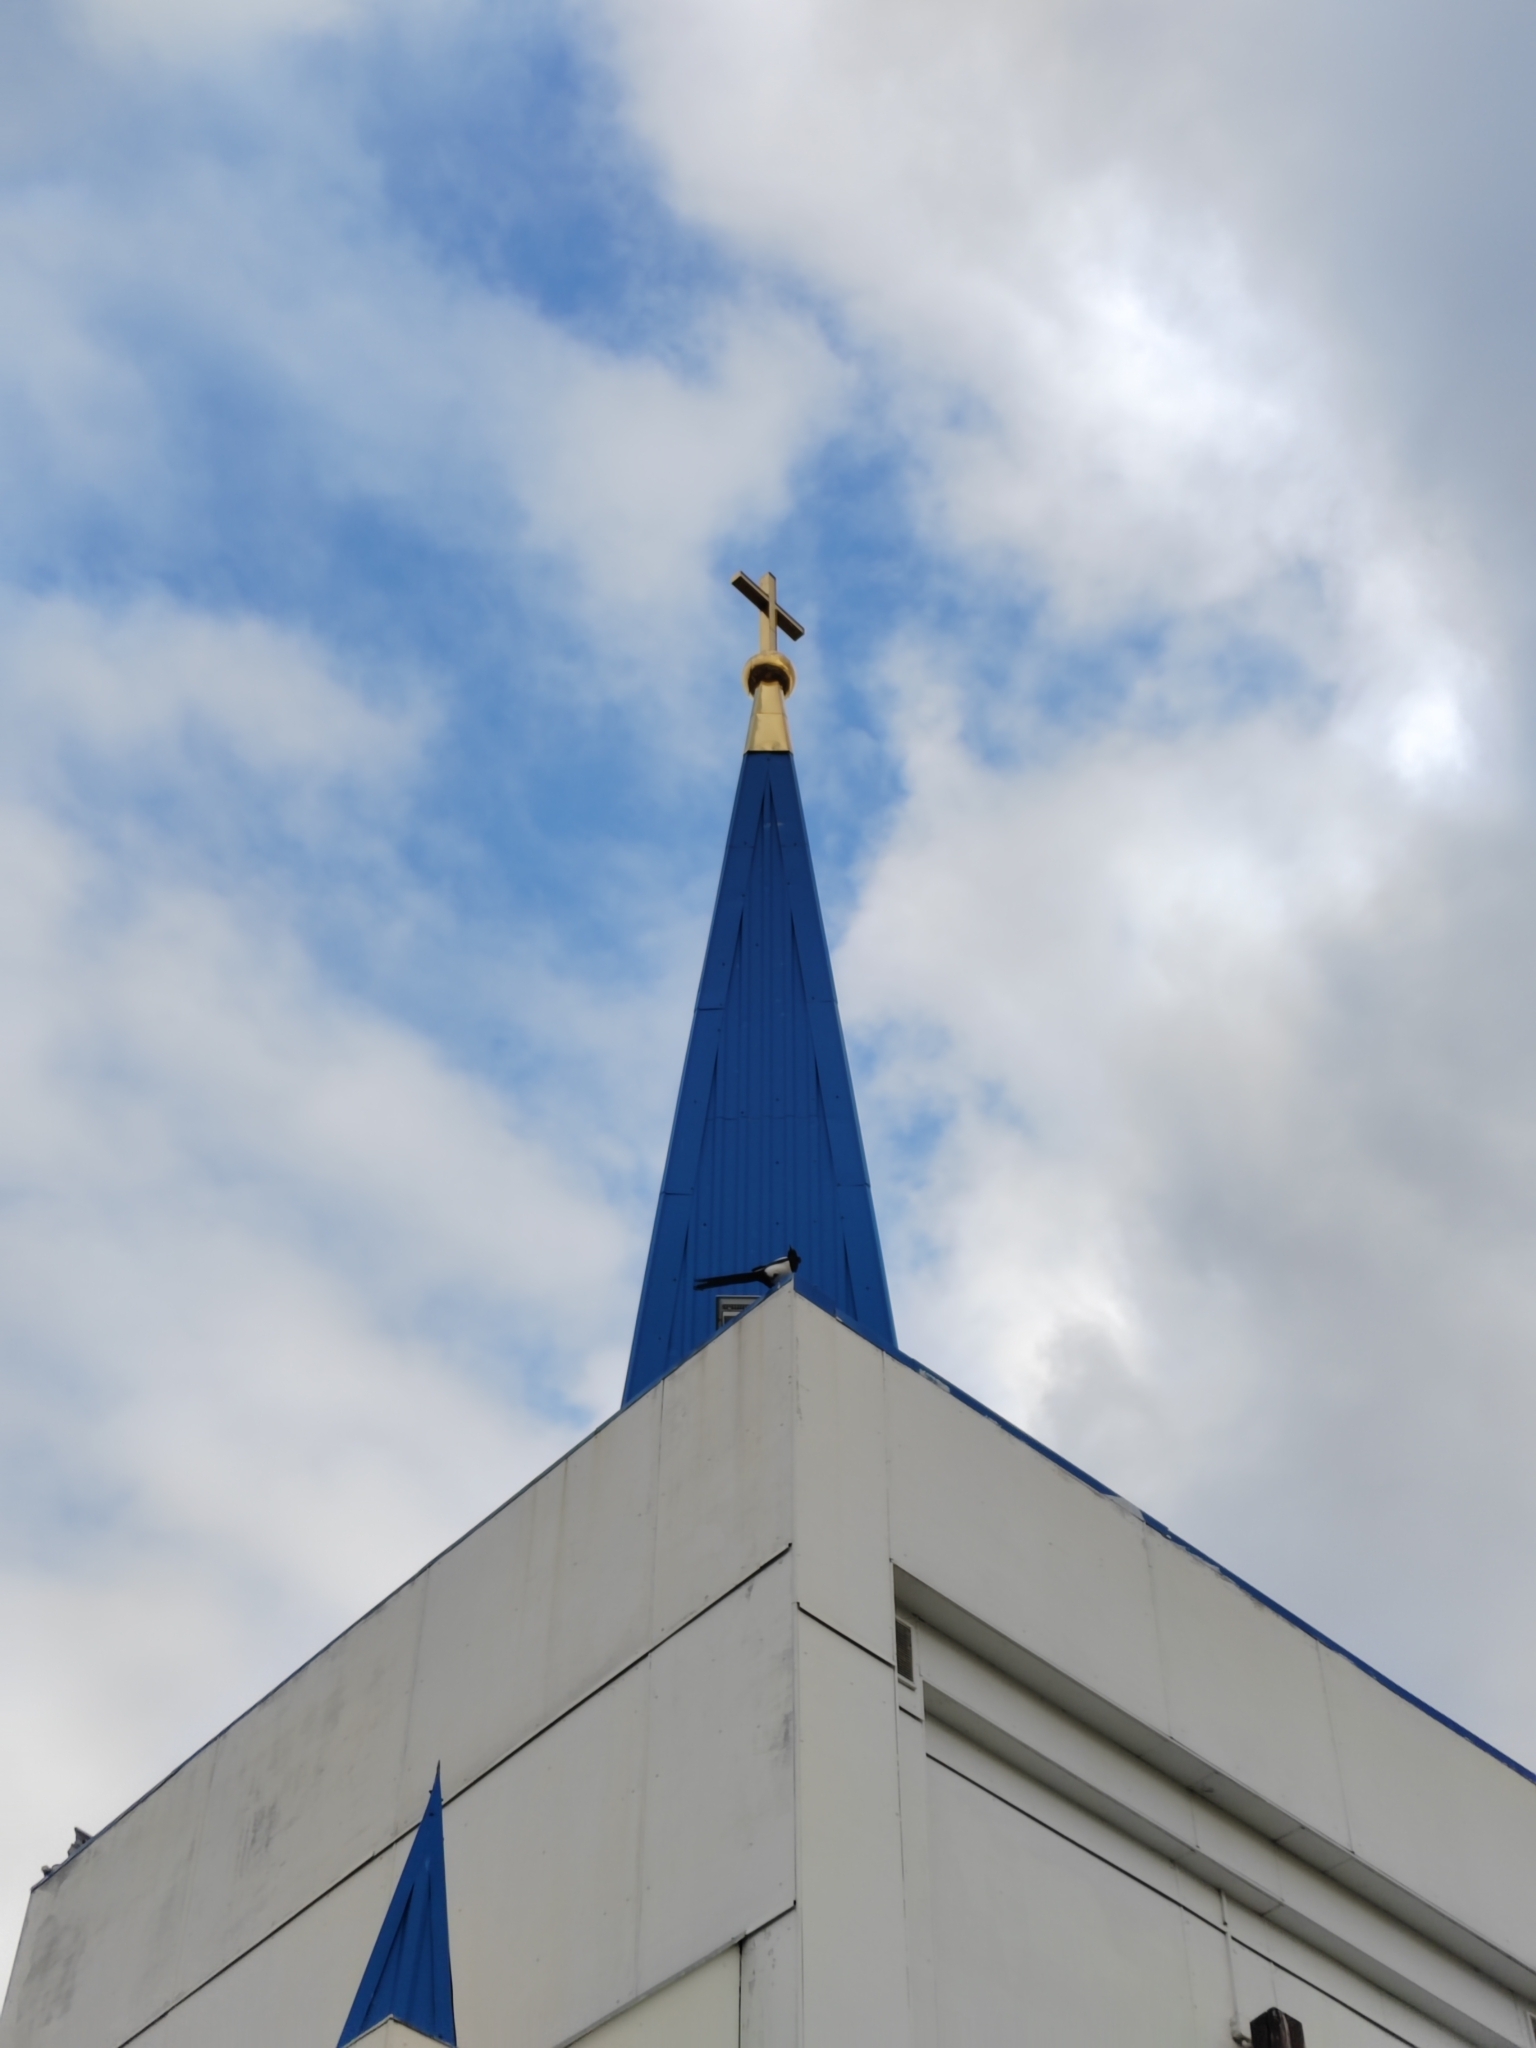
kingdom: Animalia
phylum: Chordata
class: Aves
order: Passeriformes
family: Corvidae
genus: Pica
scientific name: Pica pica
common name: Eurasian magpie
